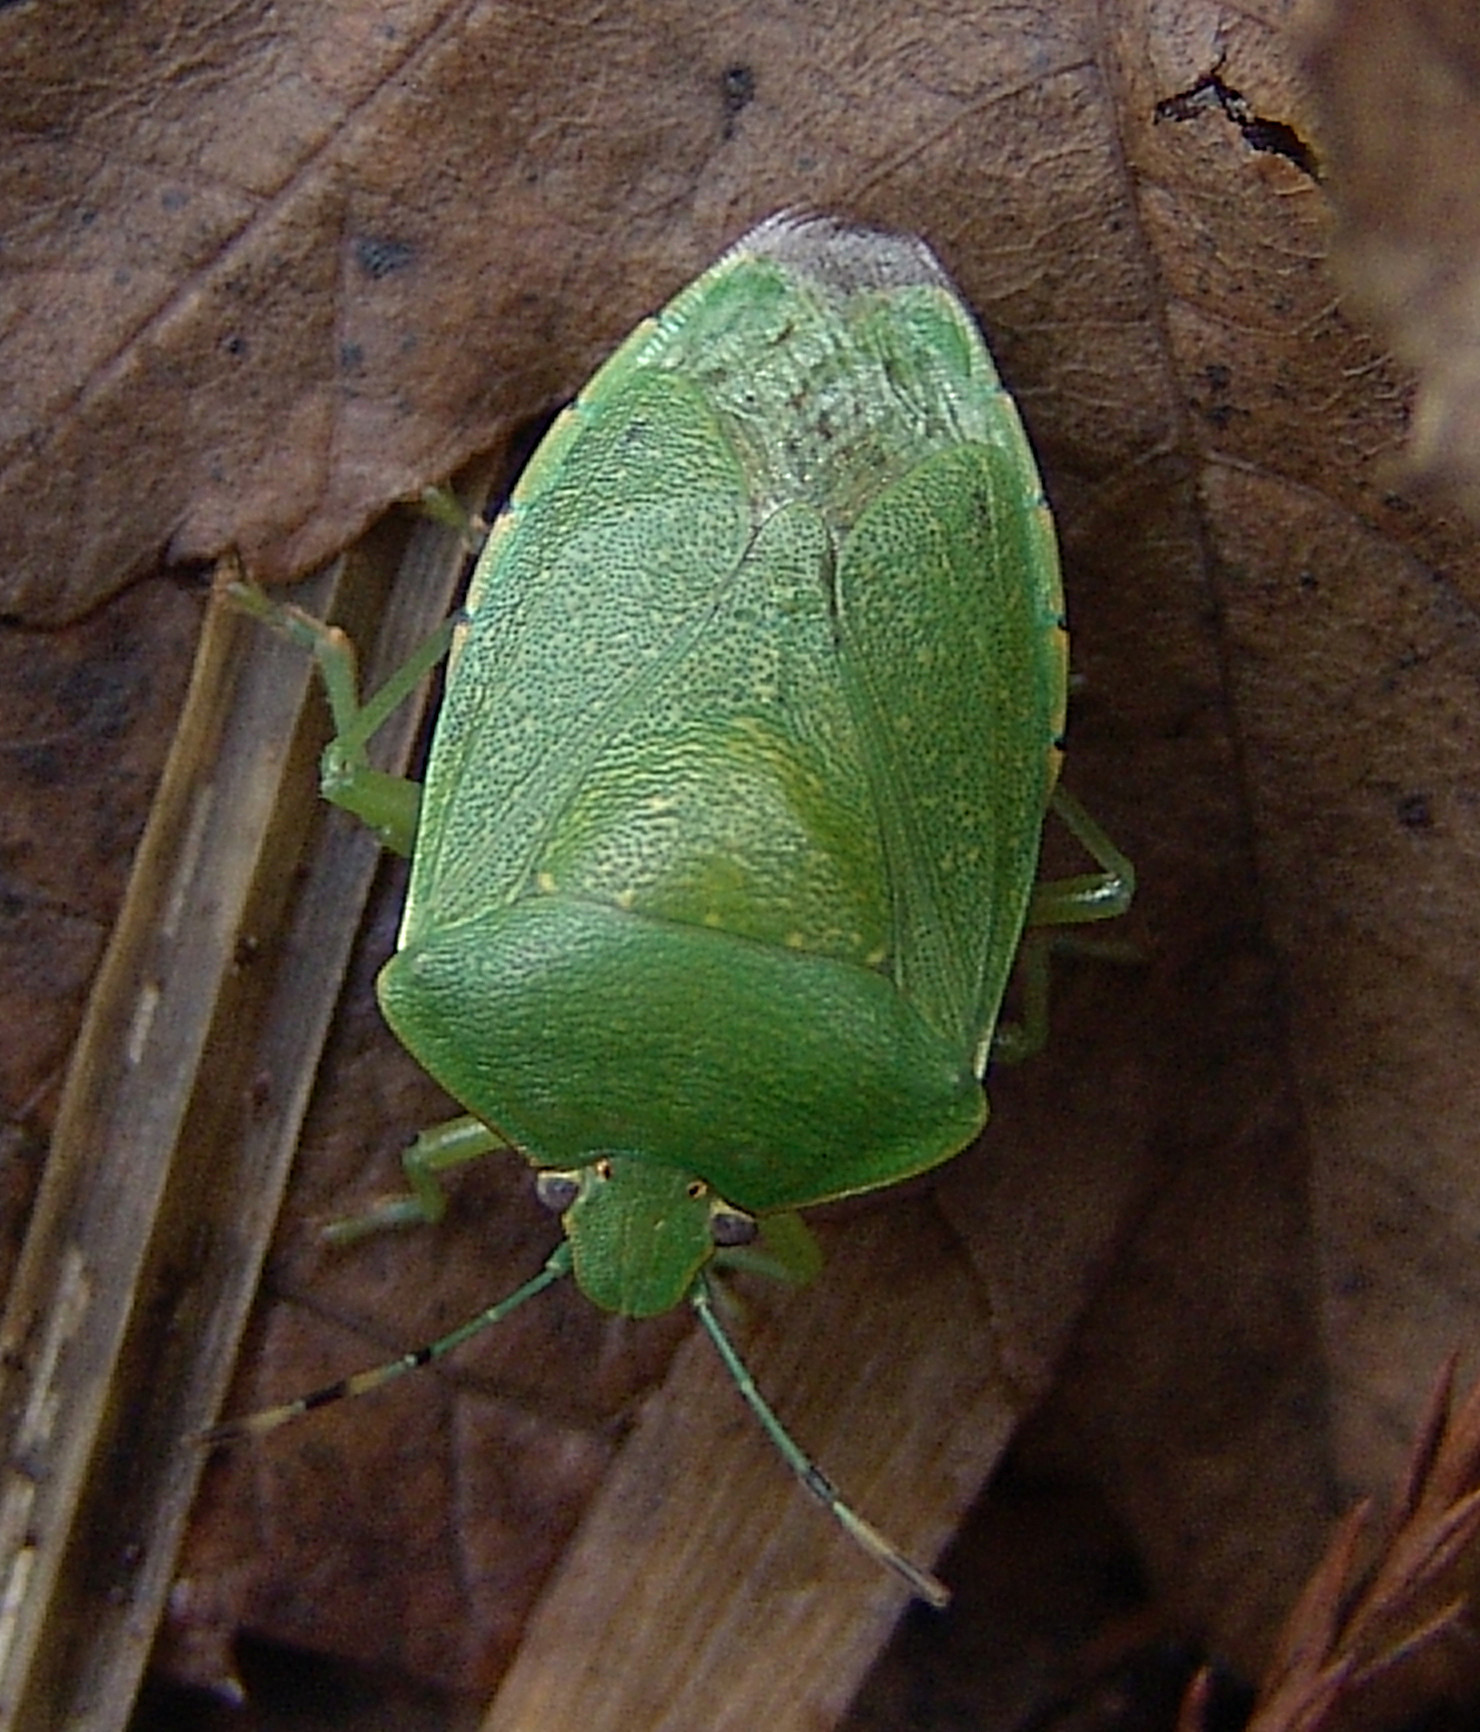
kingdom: Animalia
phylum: Arthropoda
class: Insecta
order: Hemiptera
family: Pentatomidae
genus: Chinavia
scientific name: Chinavia hilaris
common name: Green stink bug
